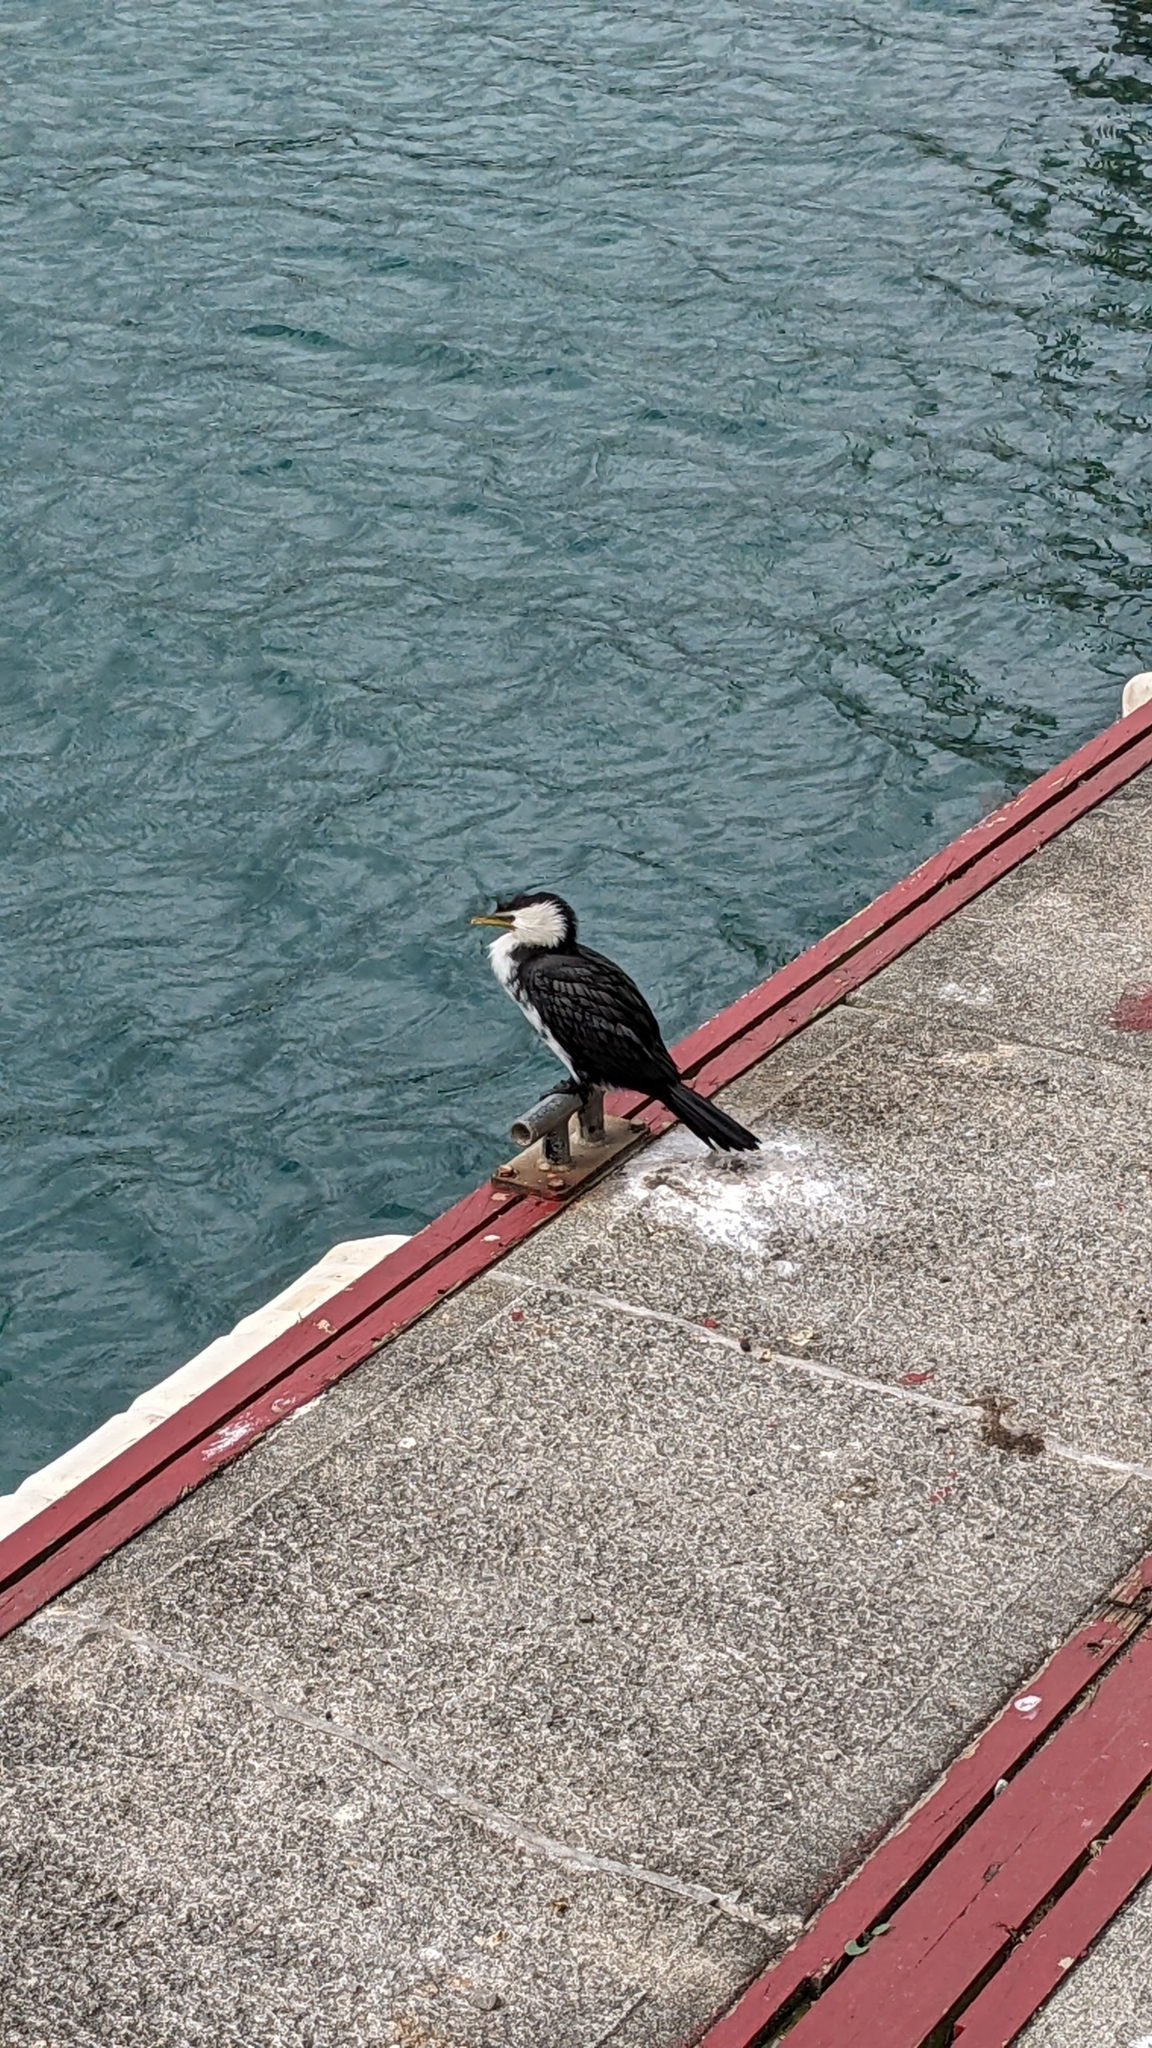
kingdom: Animalia
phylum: Chordata
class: Aves
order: Suliformes
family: Phalacrocoracidae
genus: Microcarbo
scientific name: Microcarbo melanoleucos
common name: Little pied cormorant
